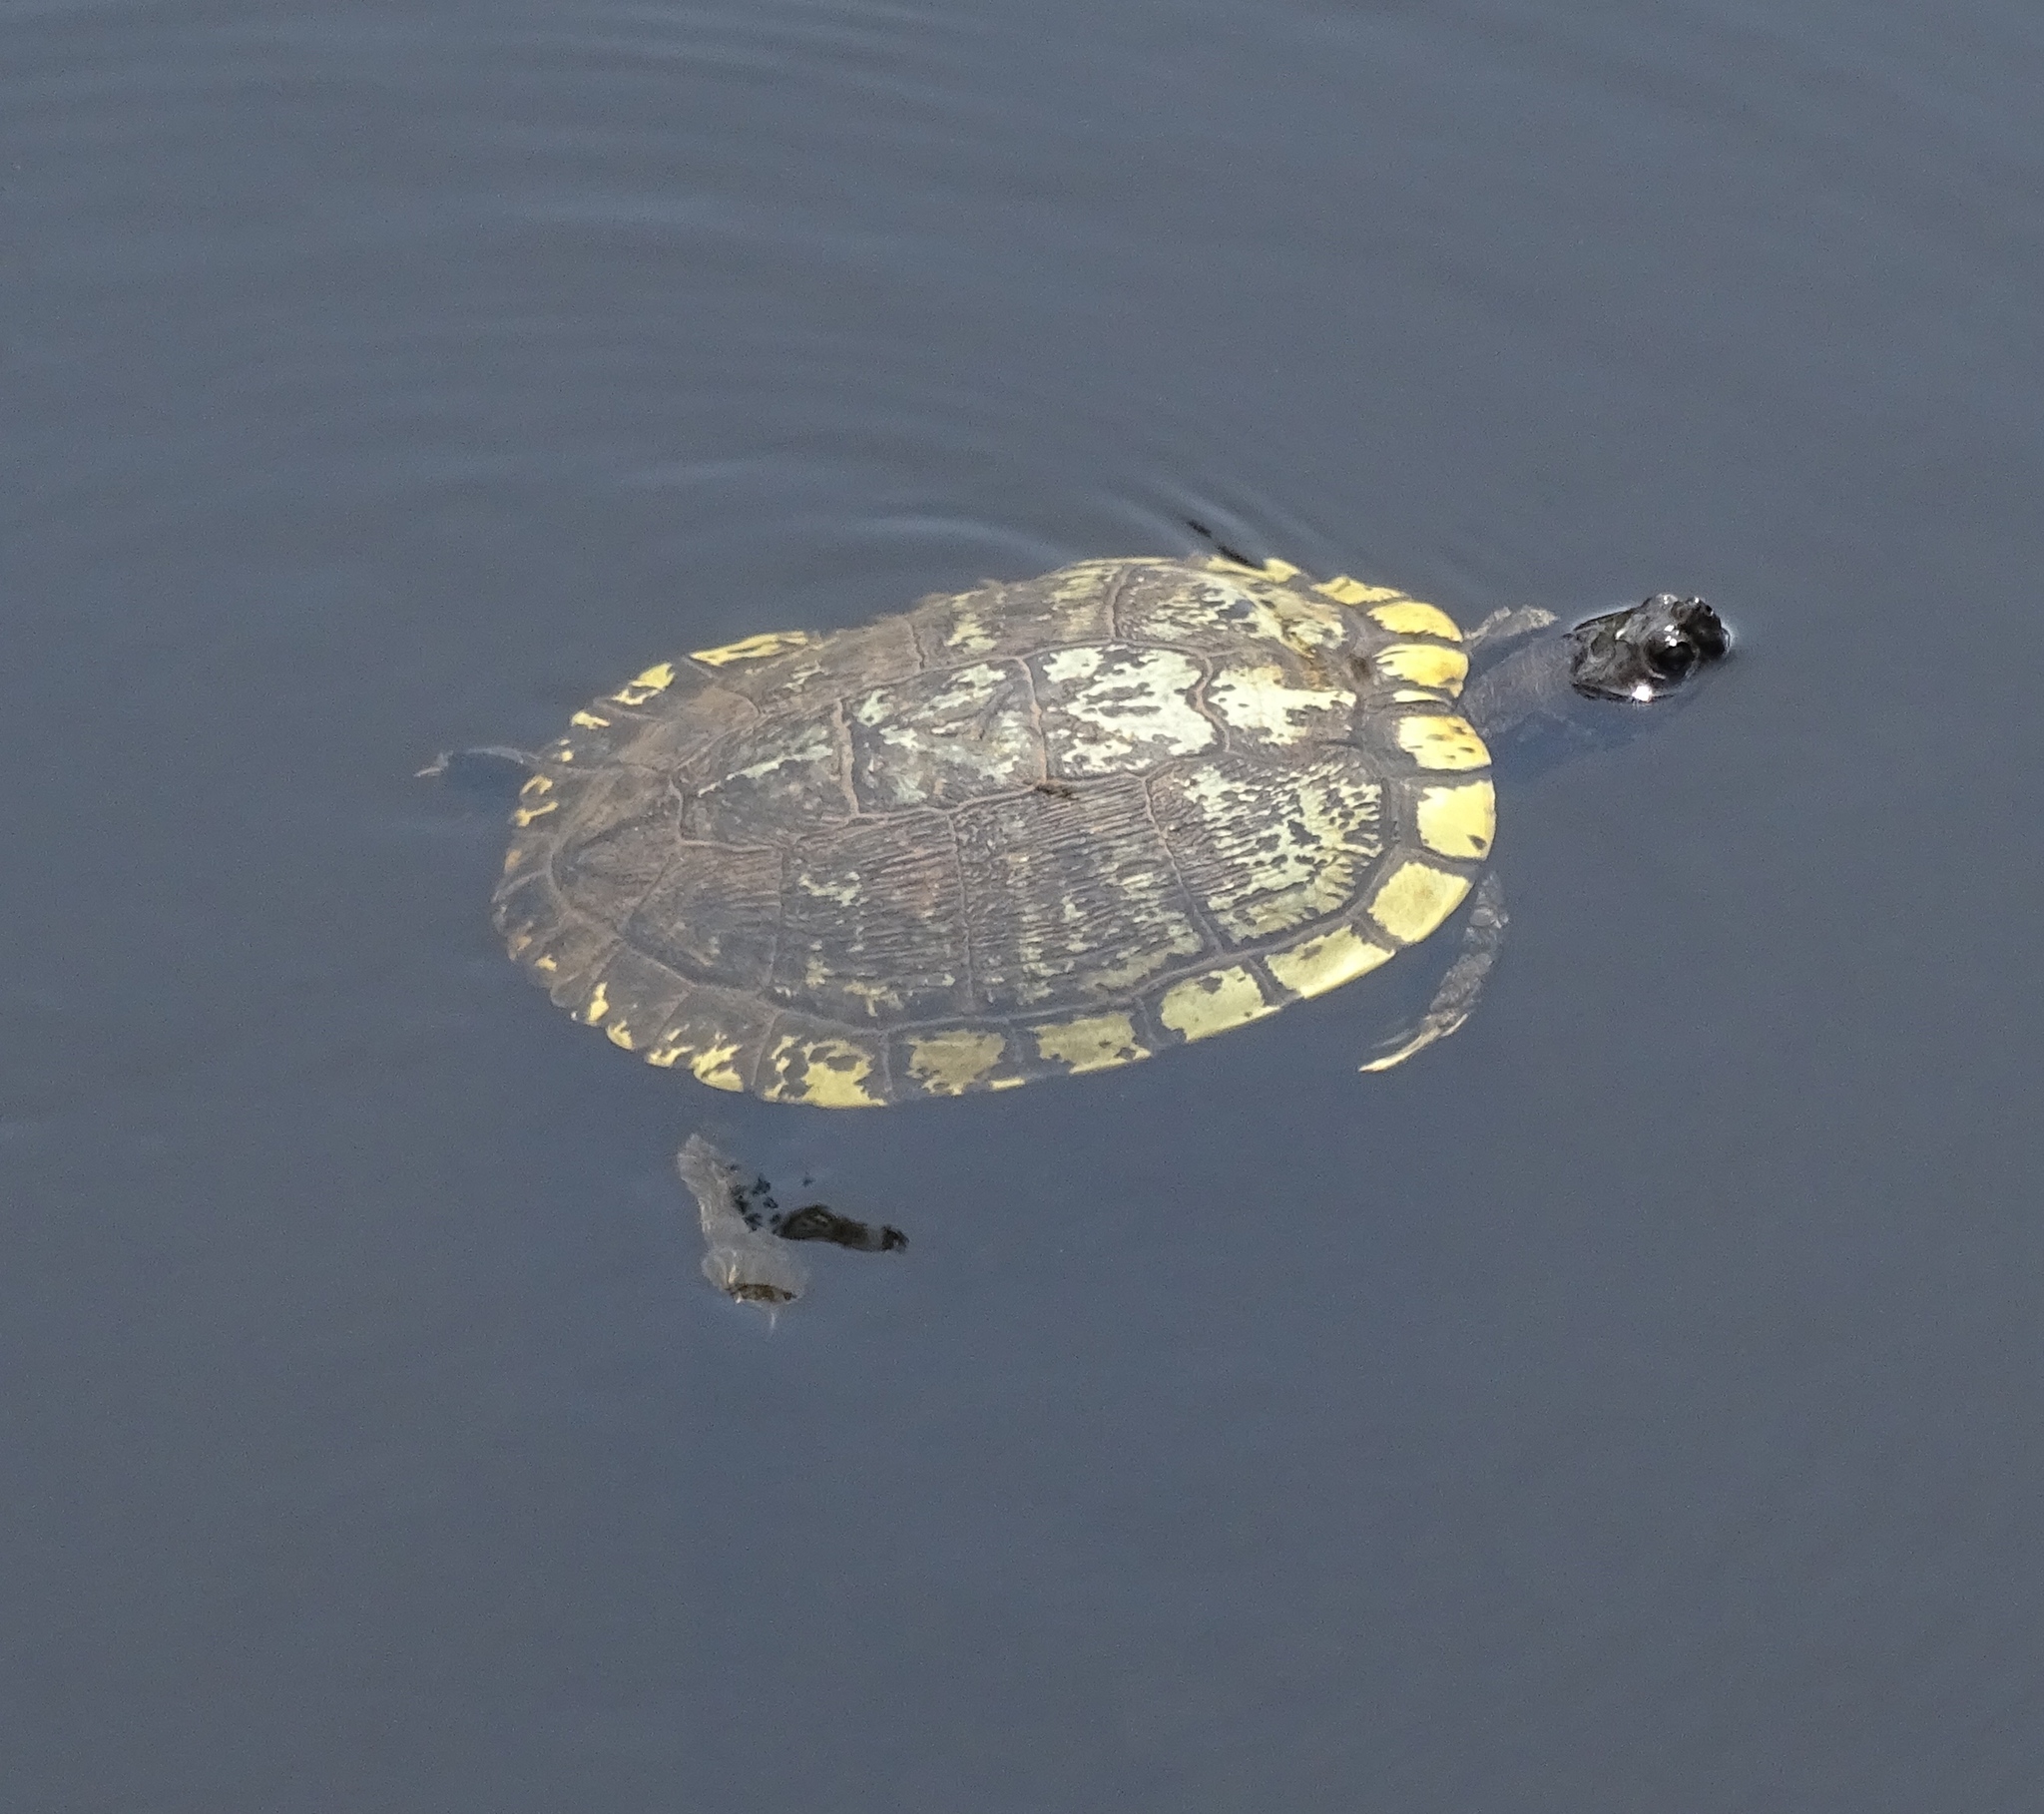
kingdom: Animalia
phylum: Chordata
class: Testudines
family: Emydidae
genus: Trachemys
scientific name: Trachemys scripta
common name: Slider
